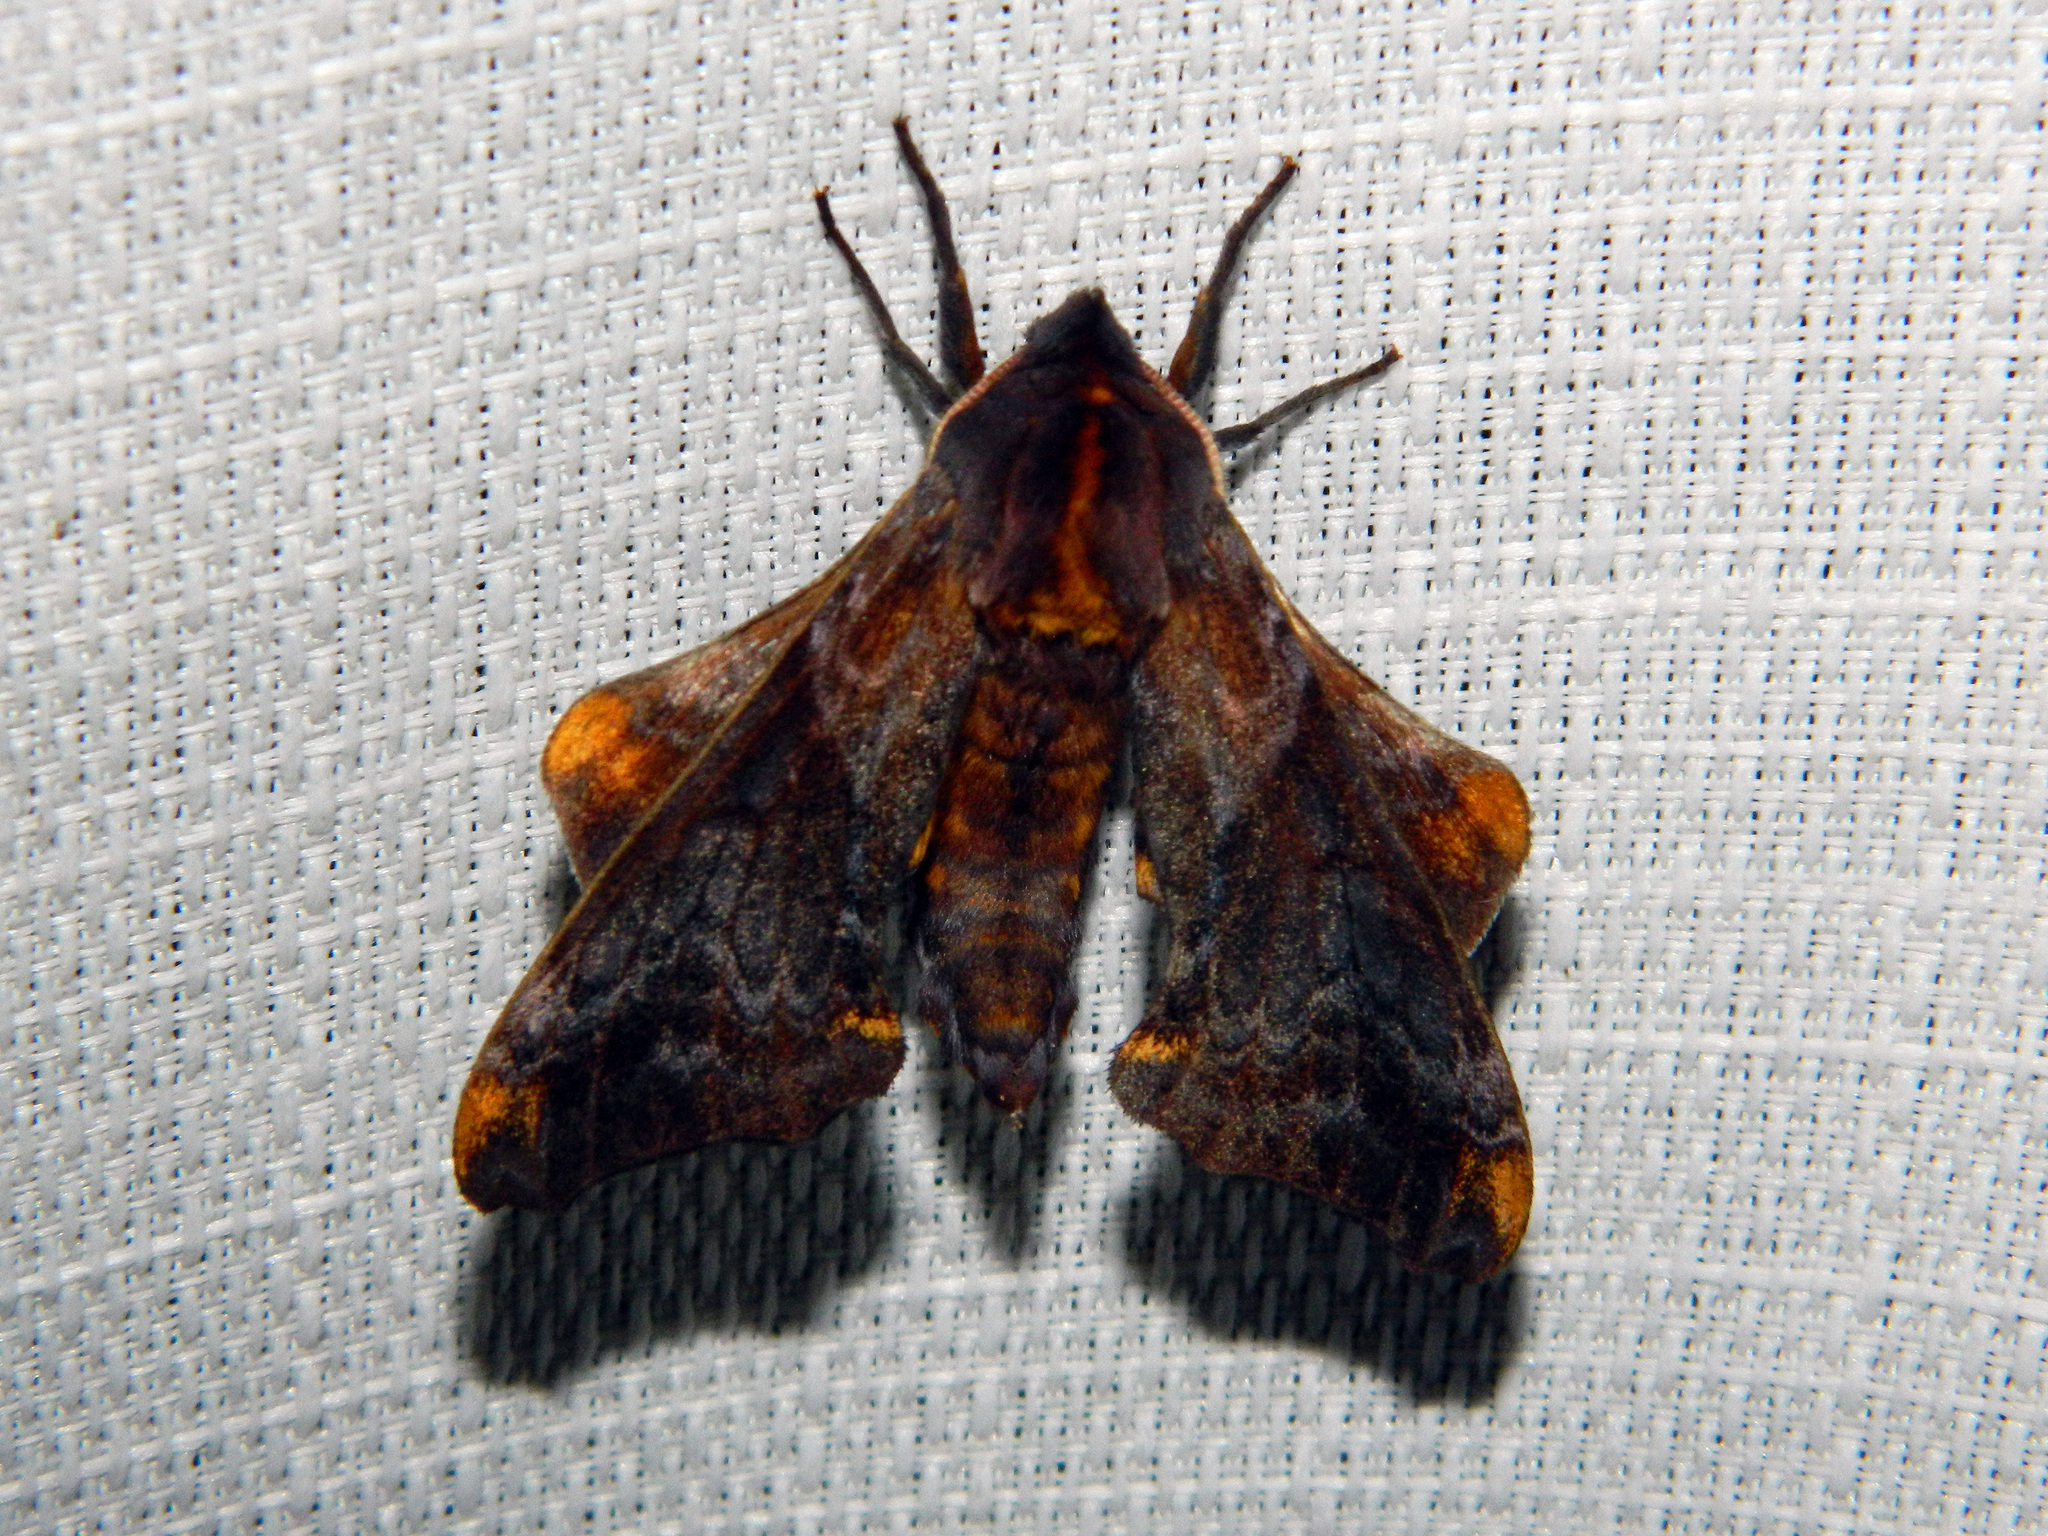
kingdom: Animalia
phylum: Arthropoda
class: Insecta
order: Lepidoptera
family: Sphingidae
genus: Paonias
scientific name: Paonias myops
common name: Small-eyed sphinx
